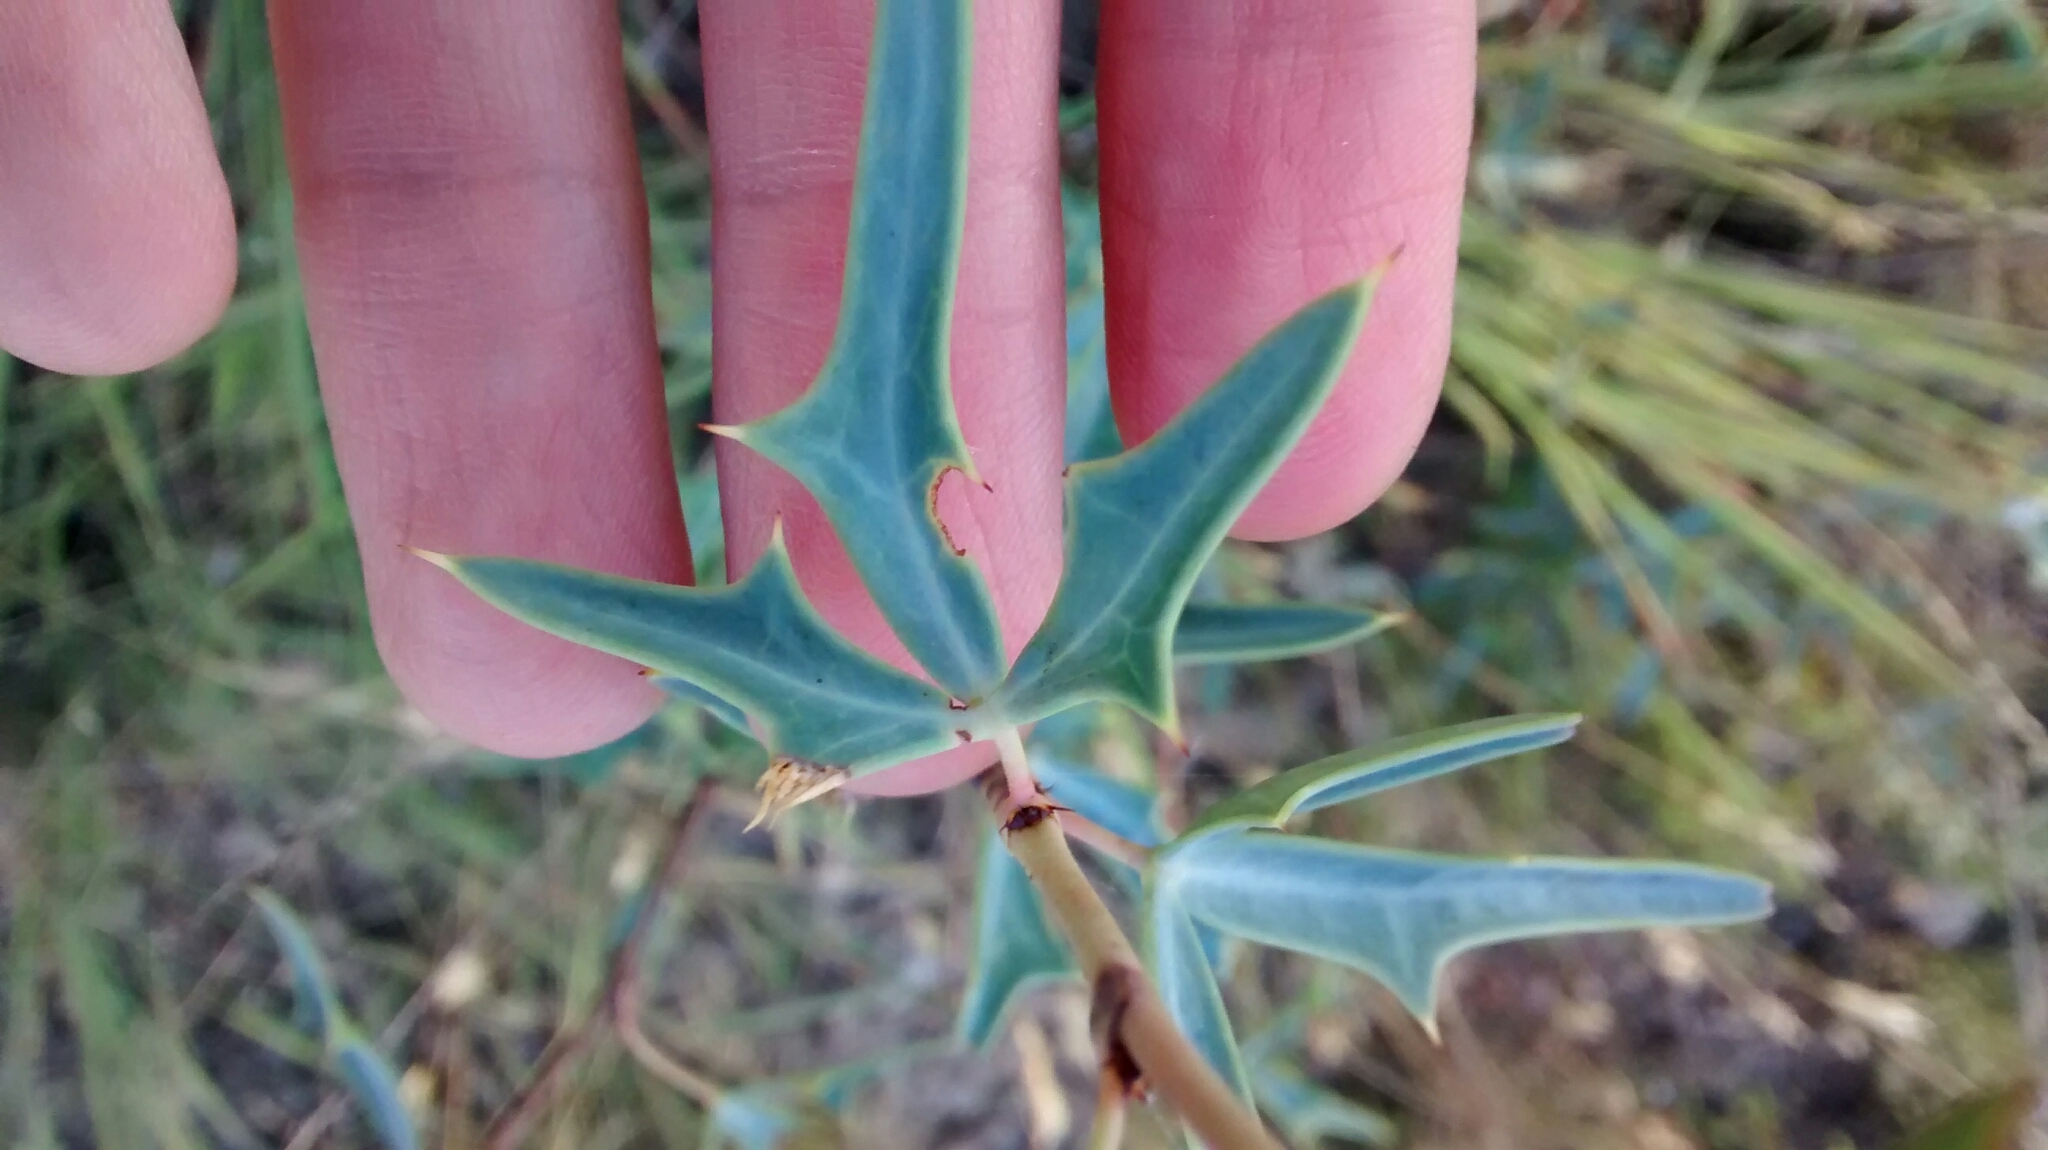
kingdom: Plantae
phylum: Tracheophyta
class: Magnoliopsida
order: Ranunculales
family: Berberidaceae
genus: Alloberberis
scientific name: Alloberberis trifoliolata
